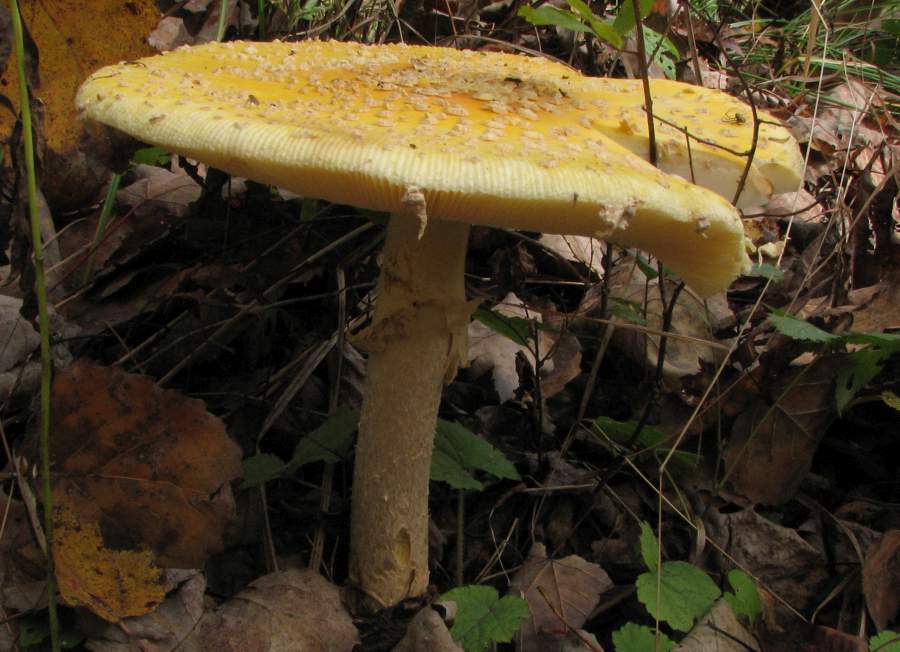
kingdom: Fungi
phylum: Basidiomycota
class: Agaricomycetes
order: Agaricales
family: Amanitaceae
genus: Amanita
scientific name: Amanita muscaria
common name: Fly agaric
